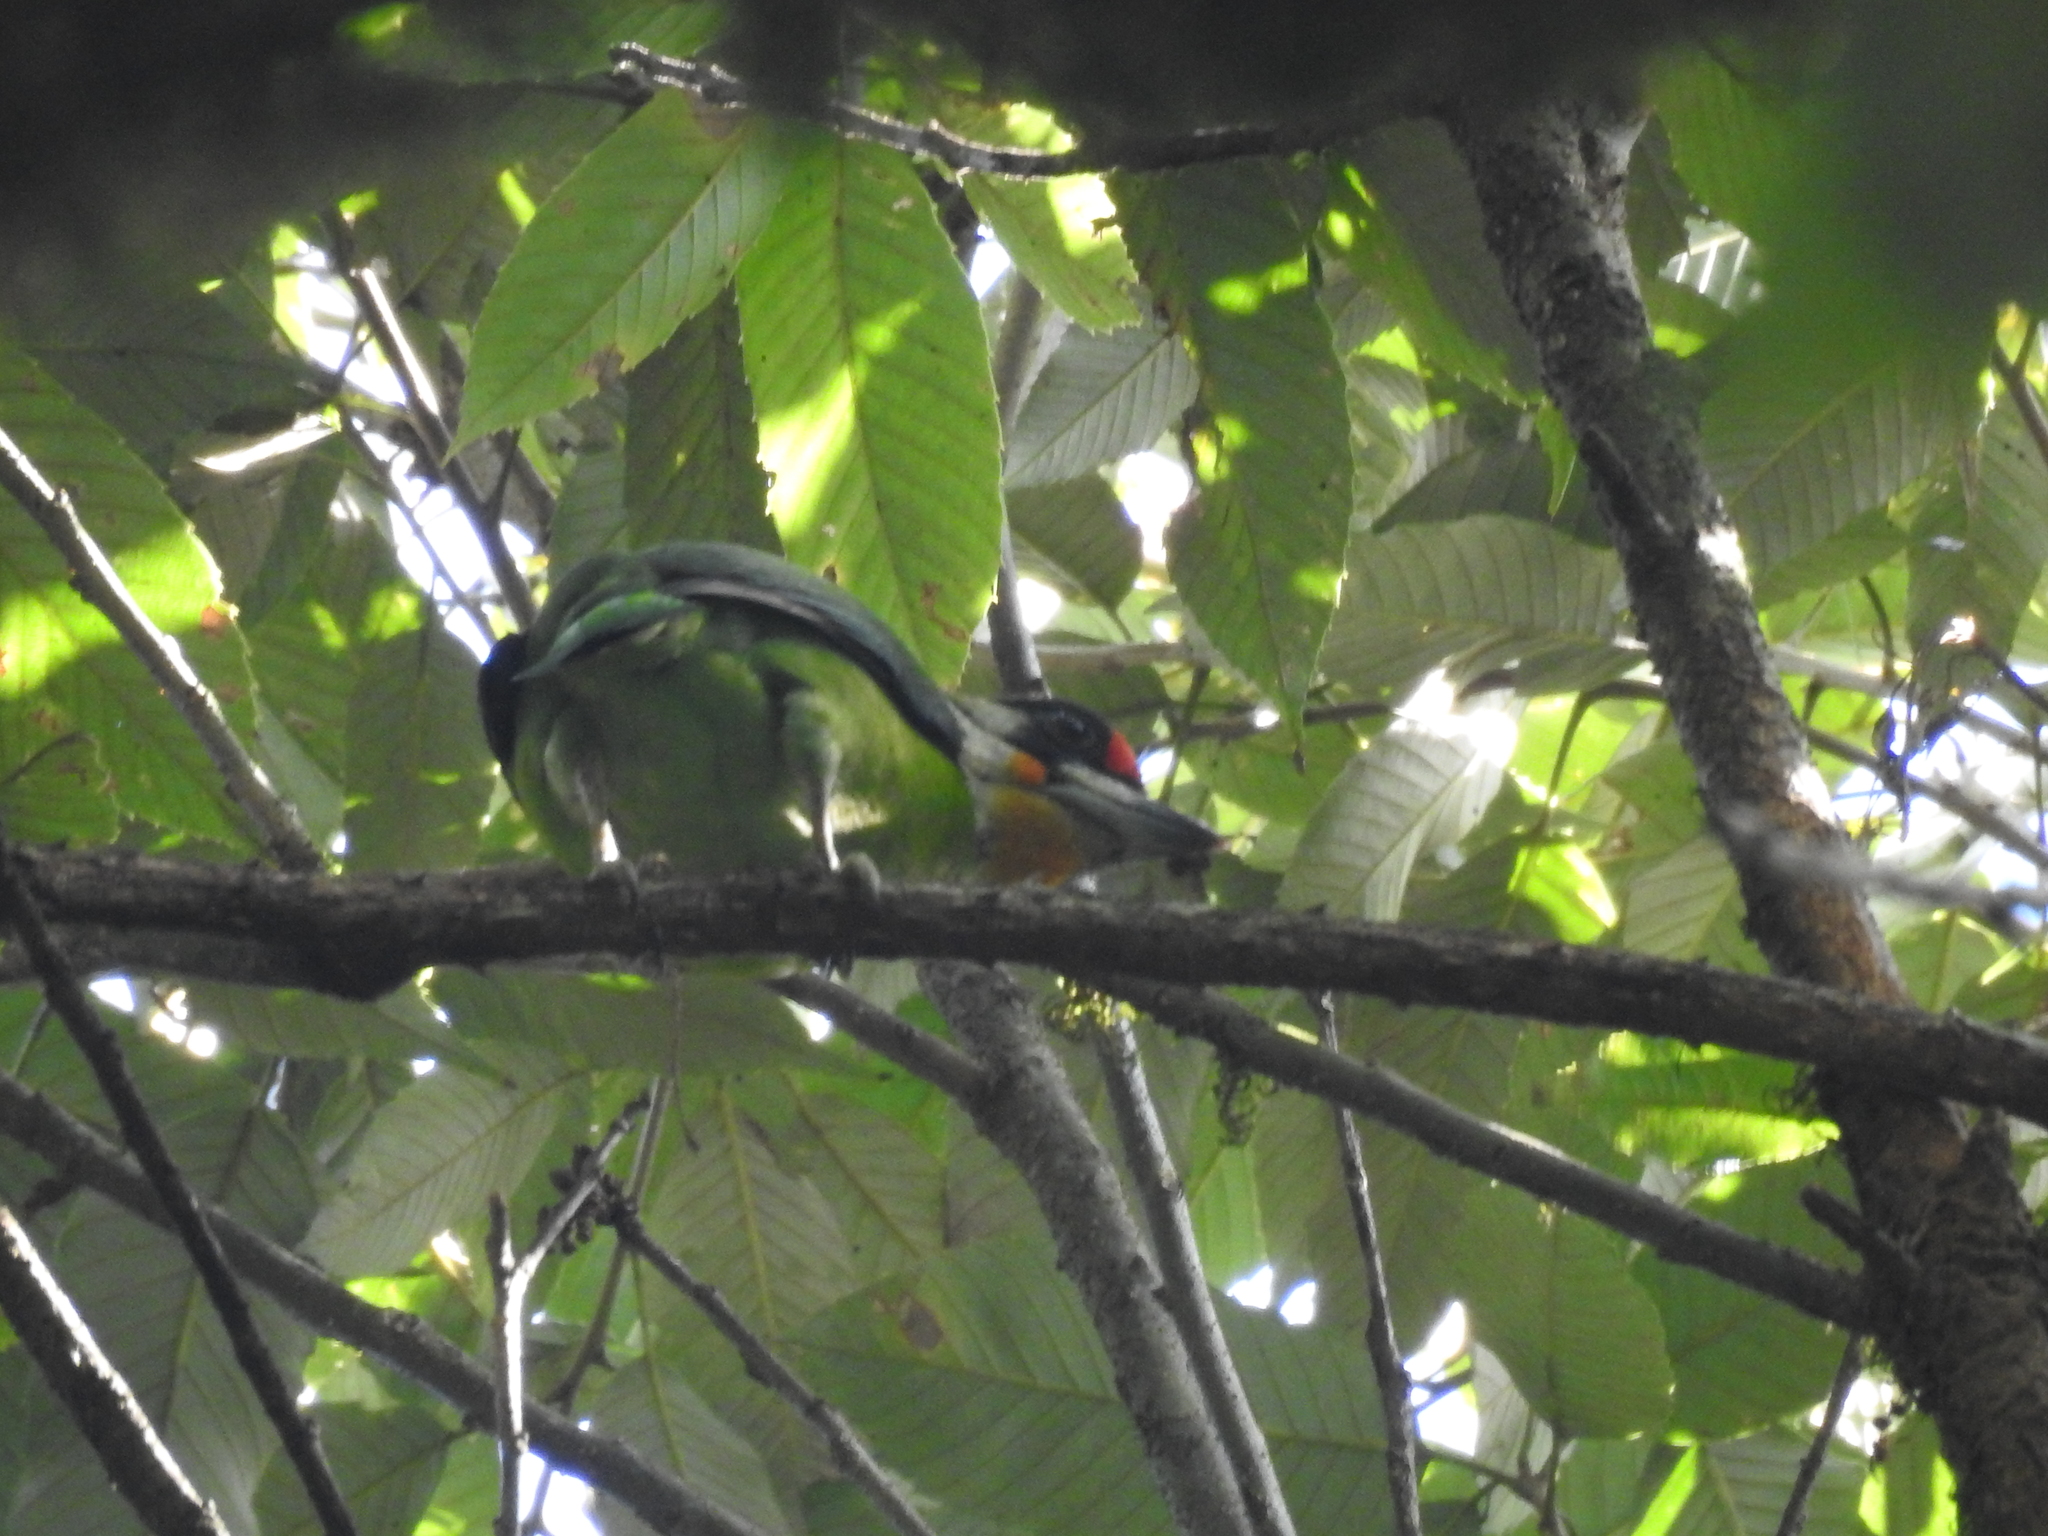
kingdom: Animalia
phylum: Chordata
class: Aves
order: Piciformes
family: Megalaimidae
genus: Psilopogon
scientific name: Psilopogon franklinii
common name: Golden-throated barbet
